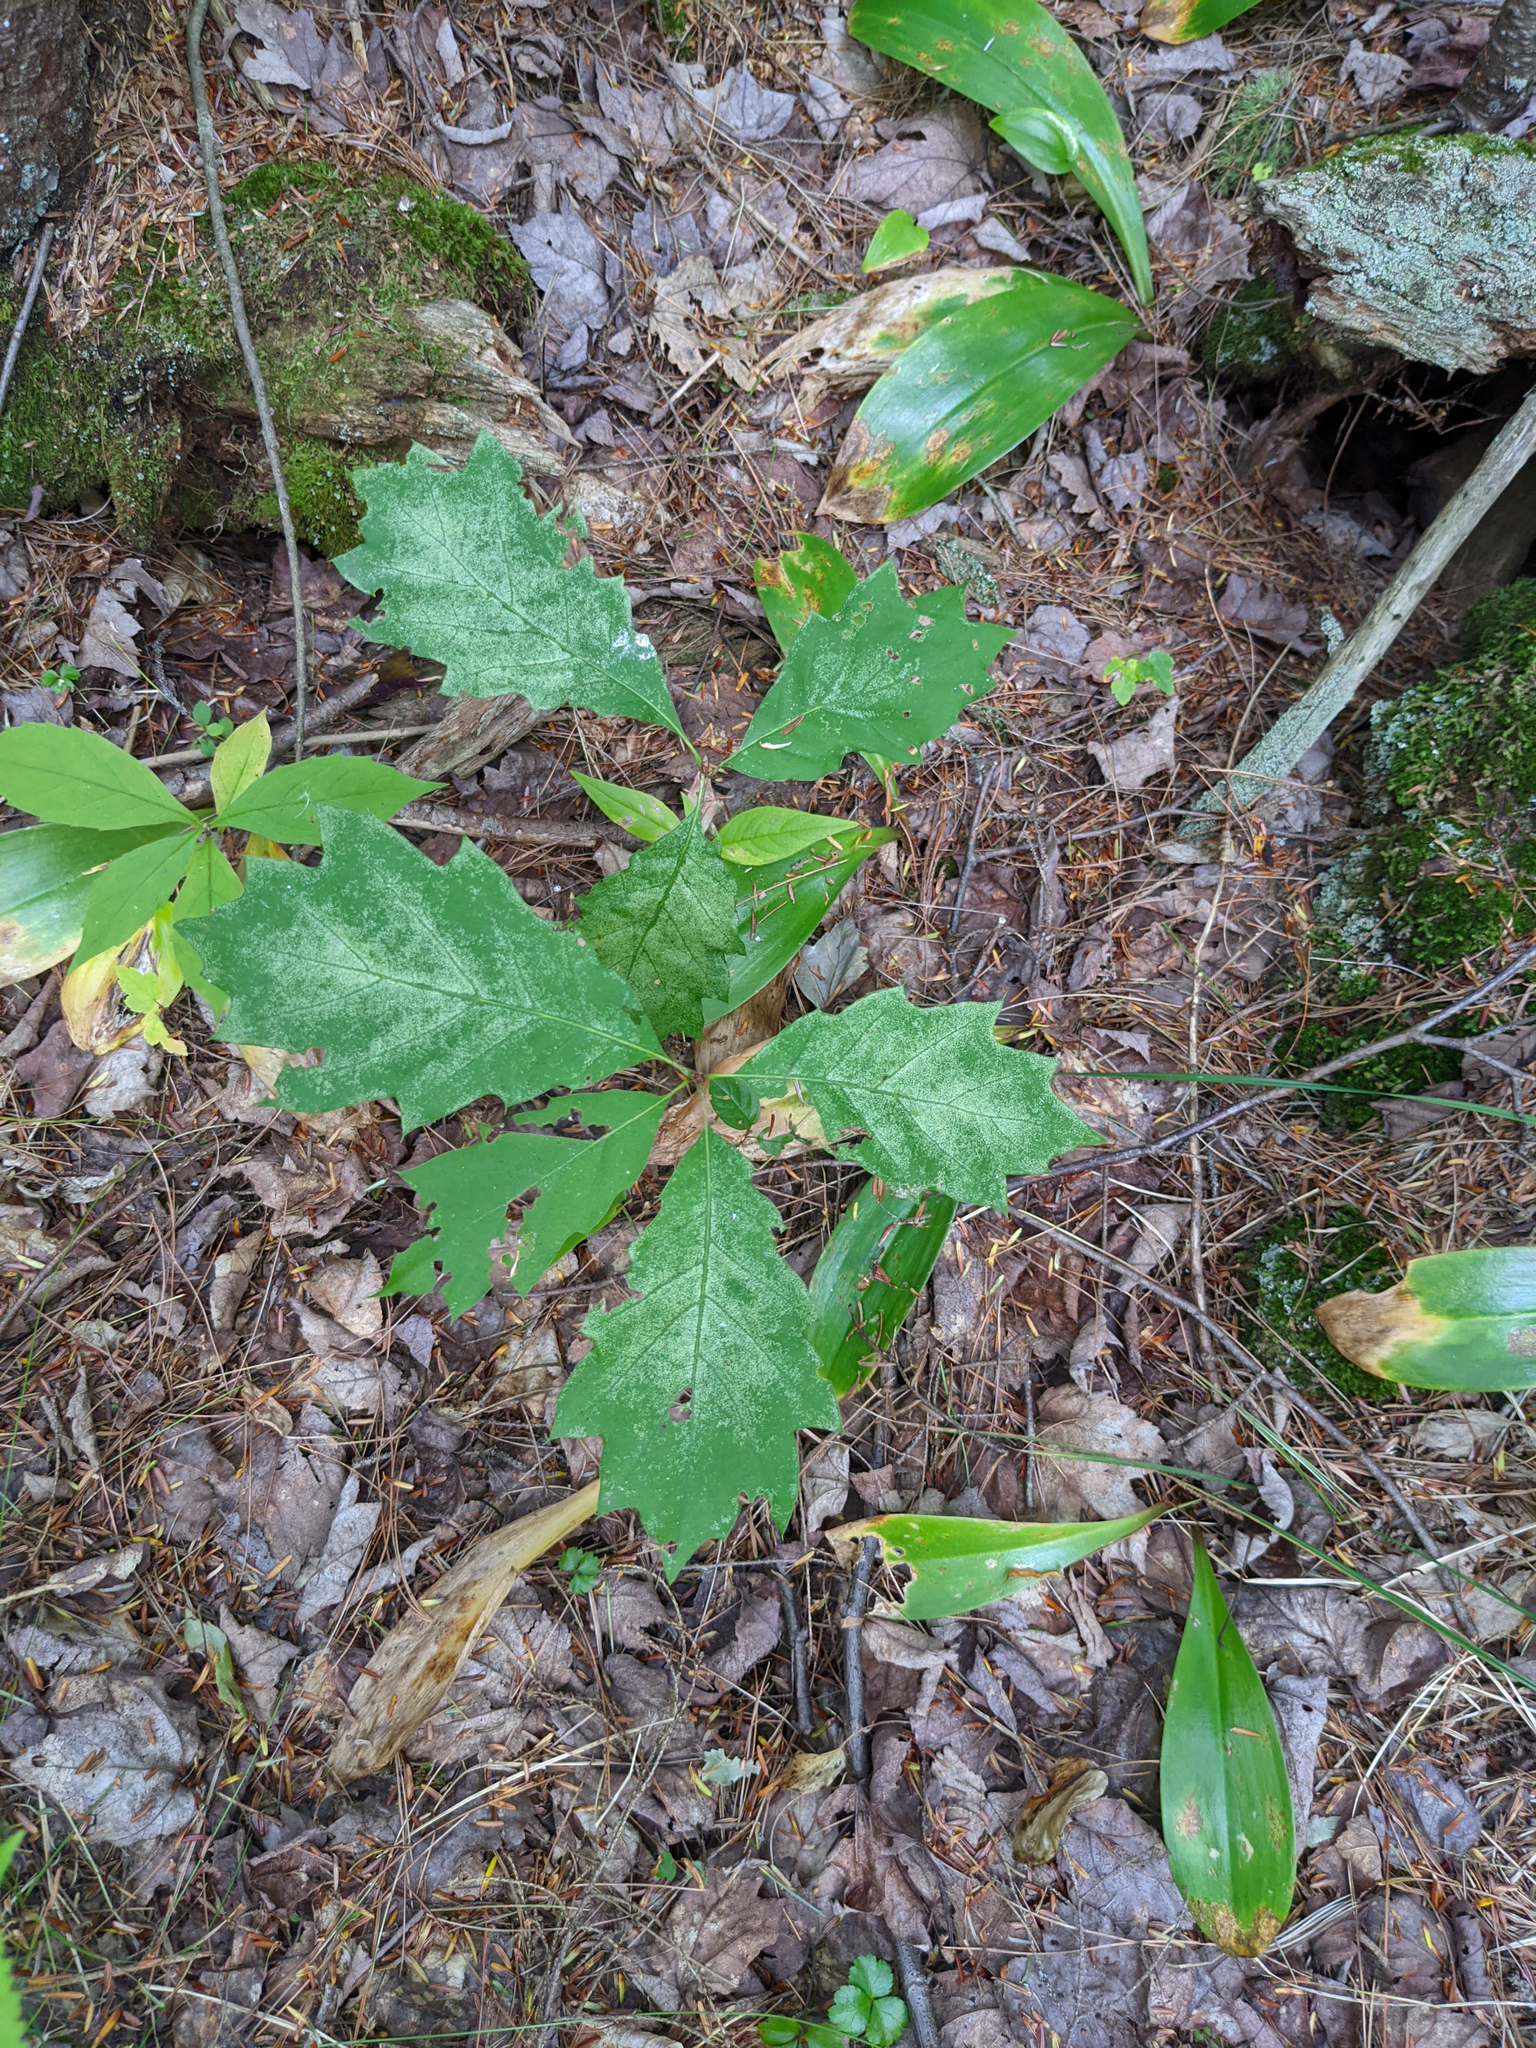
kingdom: Plantae
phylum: Tracheophyta
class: Magnoliopsida
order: Fagales
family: Fagaceae
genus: Quercus
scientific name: Quercus rubra
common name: Red oak
